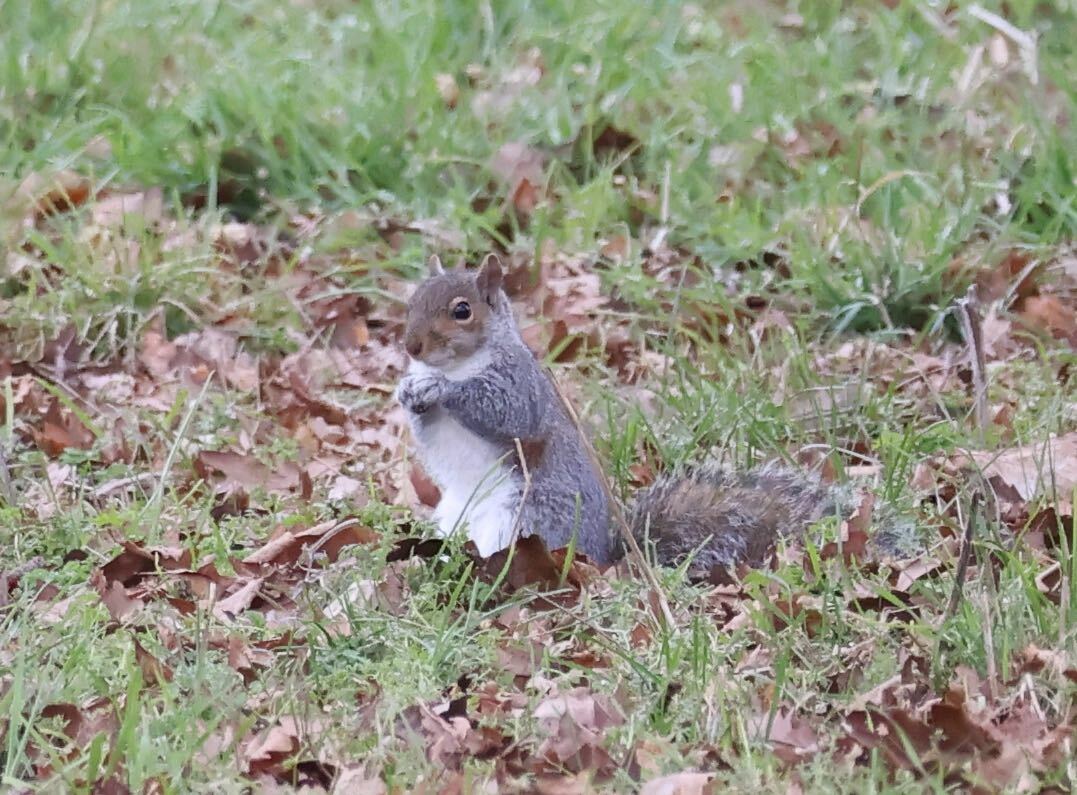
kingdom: Animalia
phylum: Chordata
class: Mammalia
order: Rodentia
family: Sciuridae
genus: Sciurus
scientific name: Sciurus carolinensis
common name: Eastern gray squirrel
